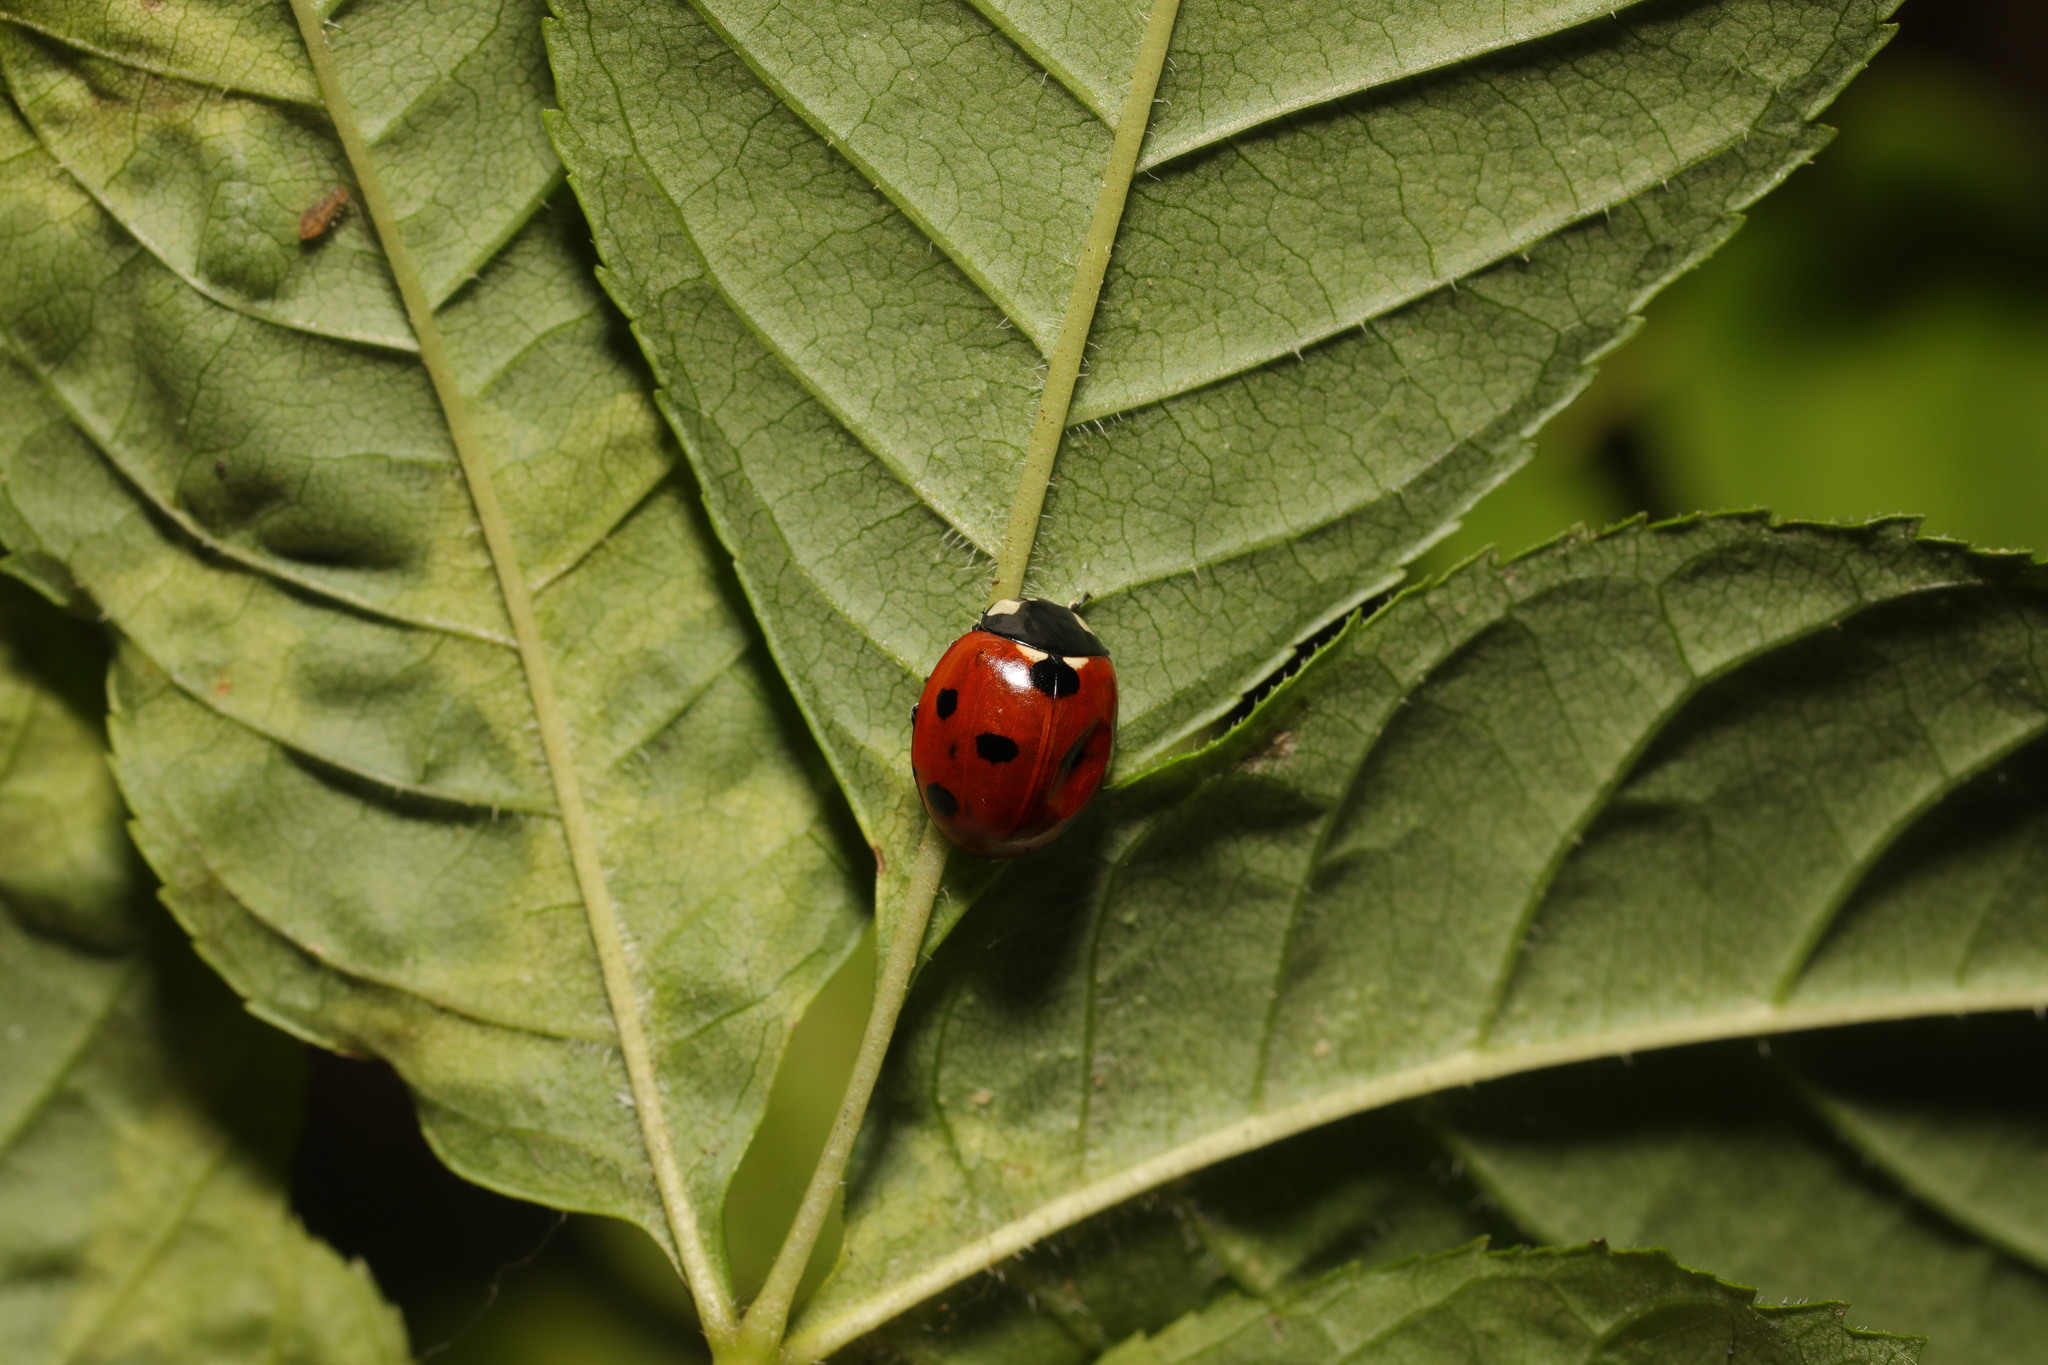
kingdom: Animalia
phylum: Arthropoda
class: Insecta
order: Coleoptera
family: Coccinellidae
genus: Coccinella
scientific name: Coccinella septempunctata
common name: Sevenspotted lady beetle
